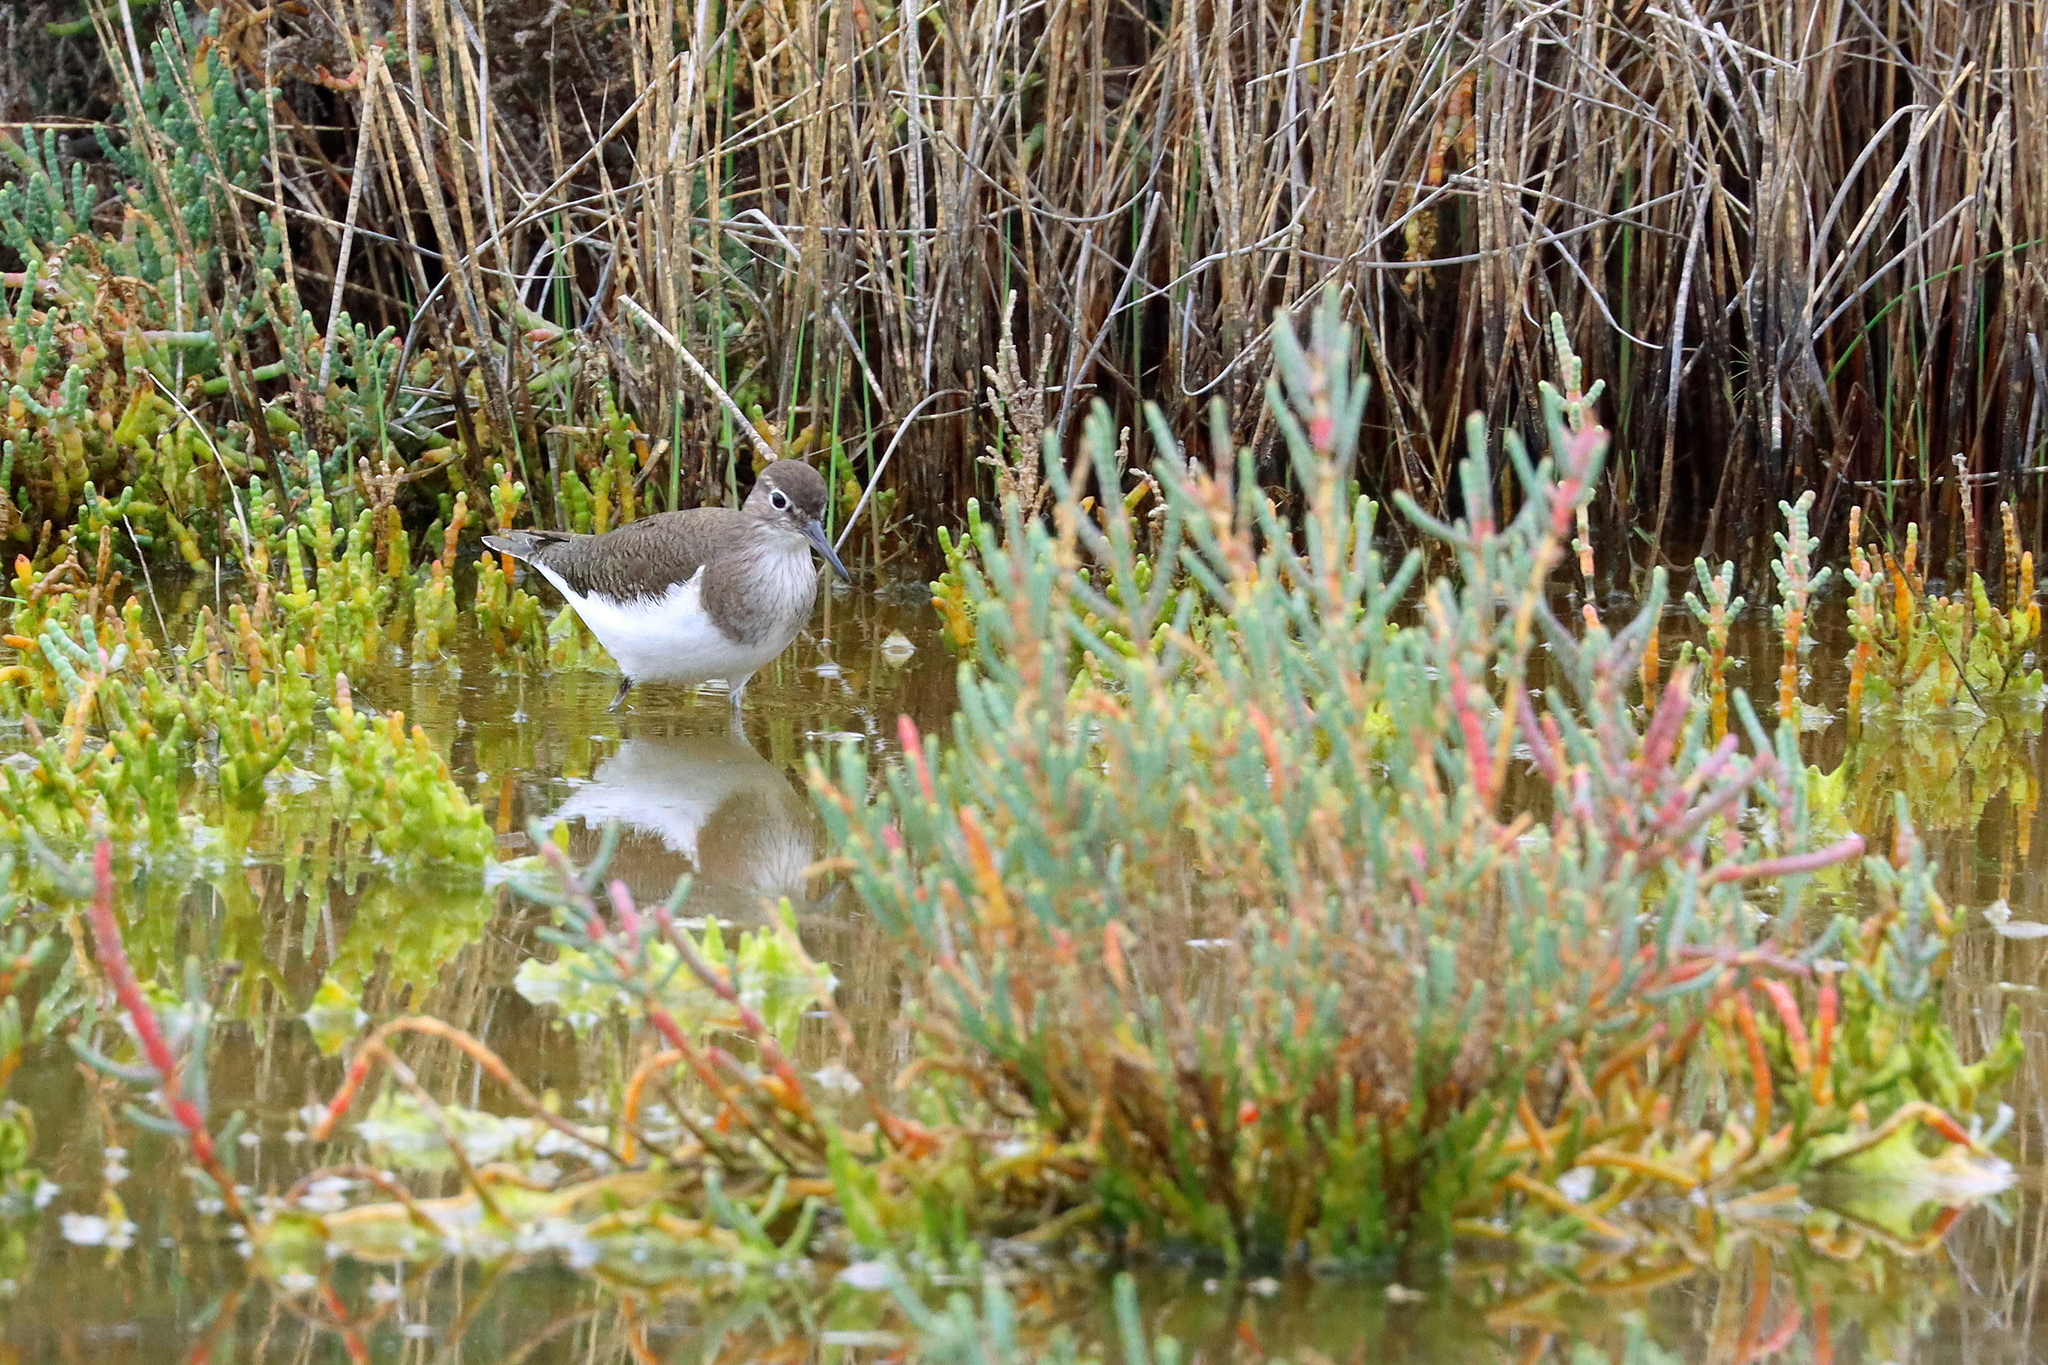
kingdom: Animalia
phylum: Chordata
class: Aves
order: Charadriiformes
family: Scolopacidae
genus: Actitis
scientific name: Actitis hypoleucos
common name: Common sandpiper
